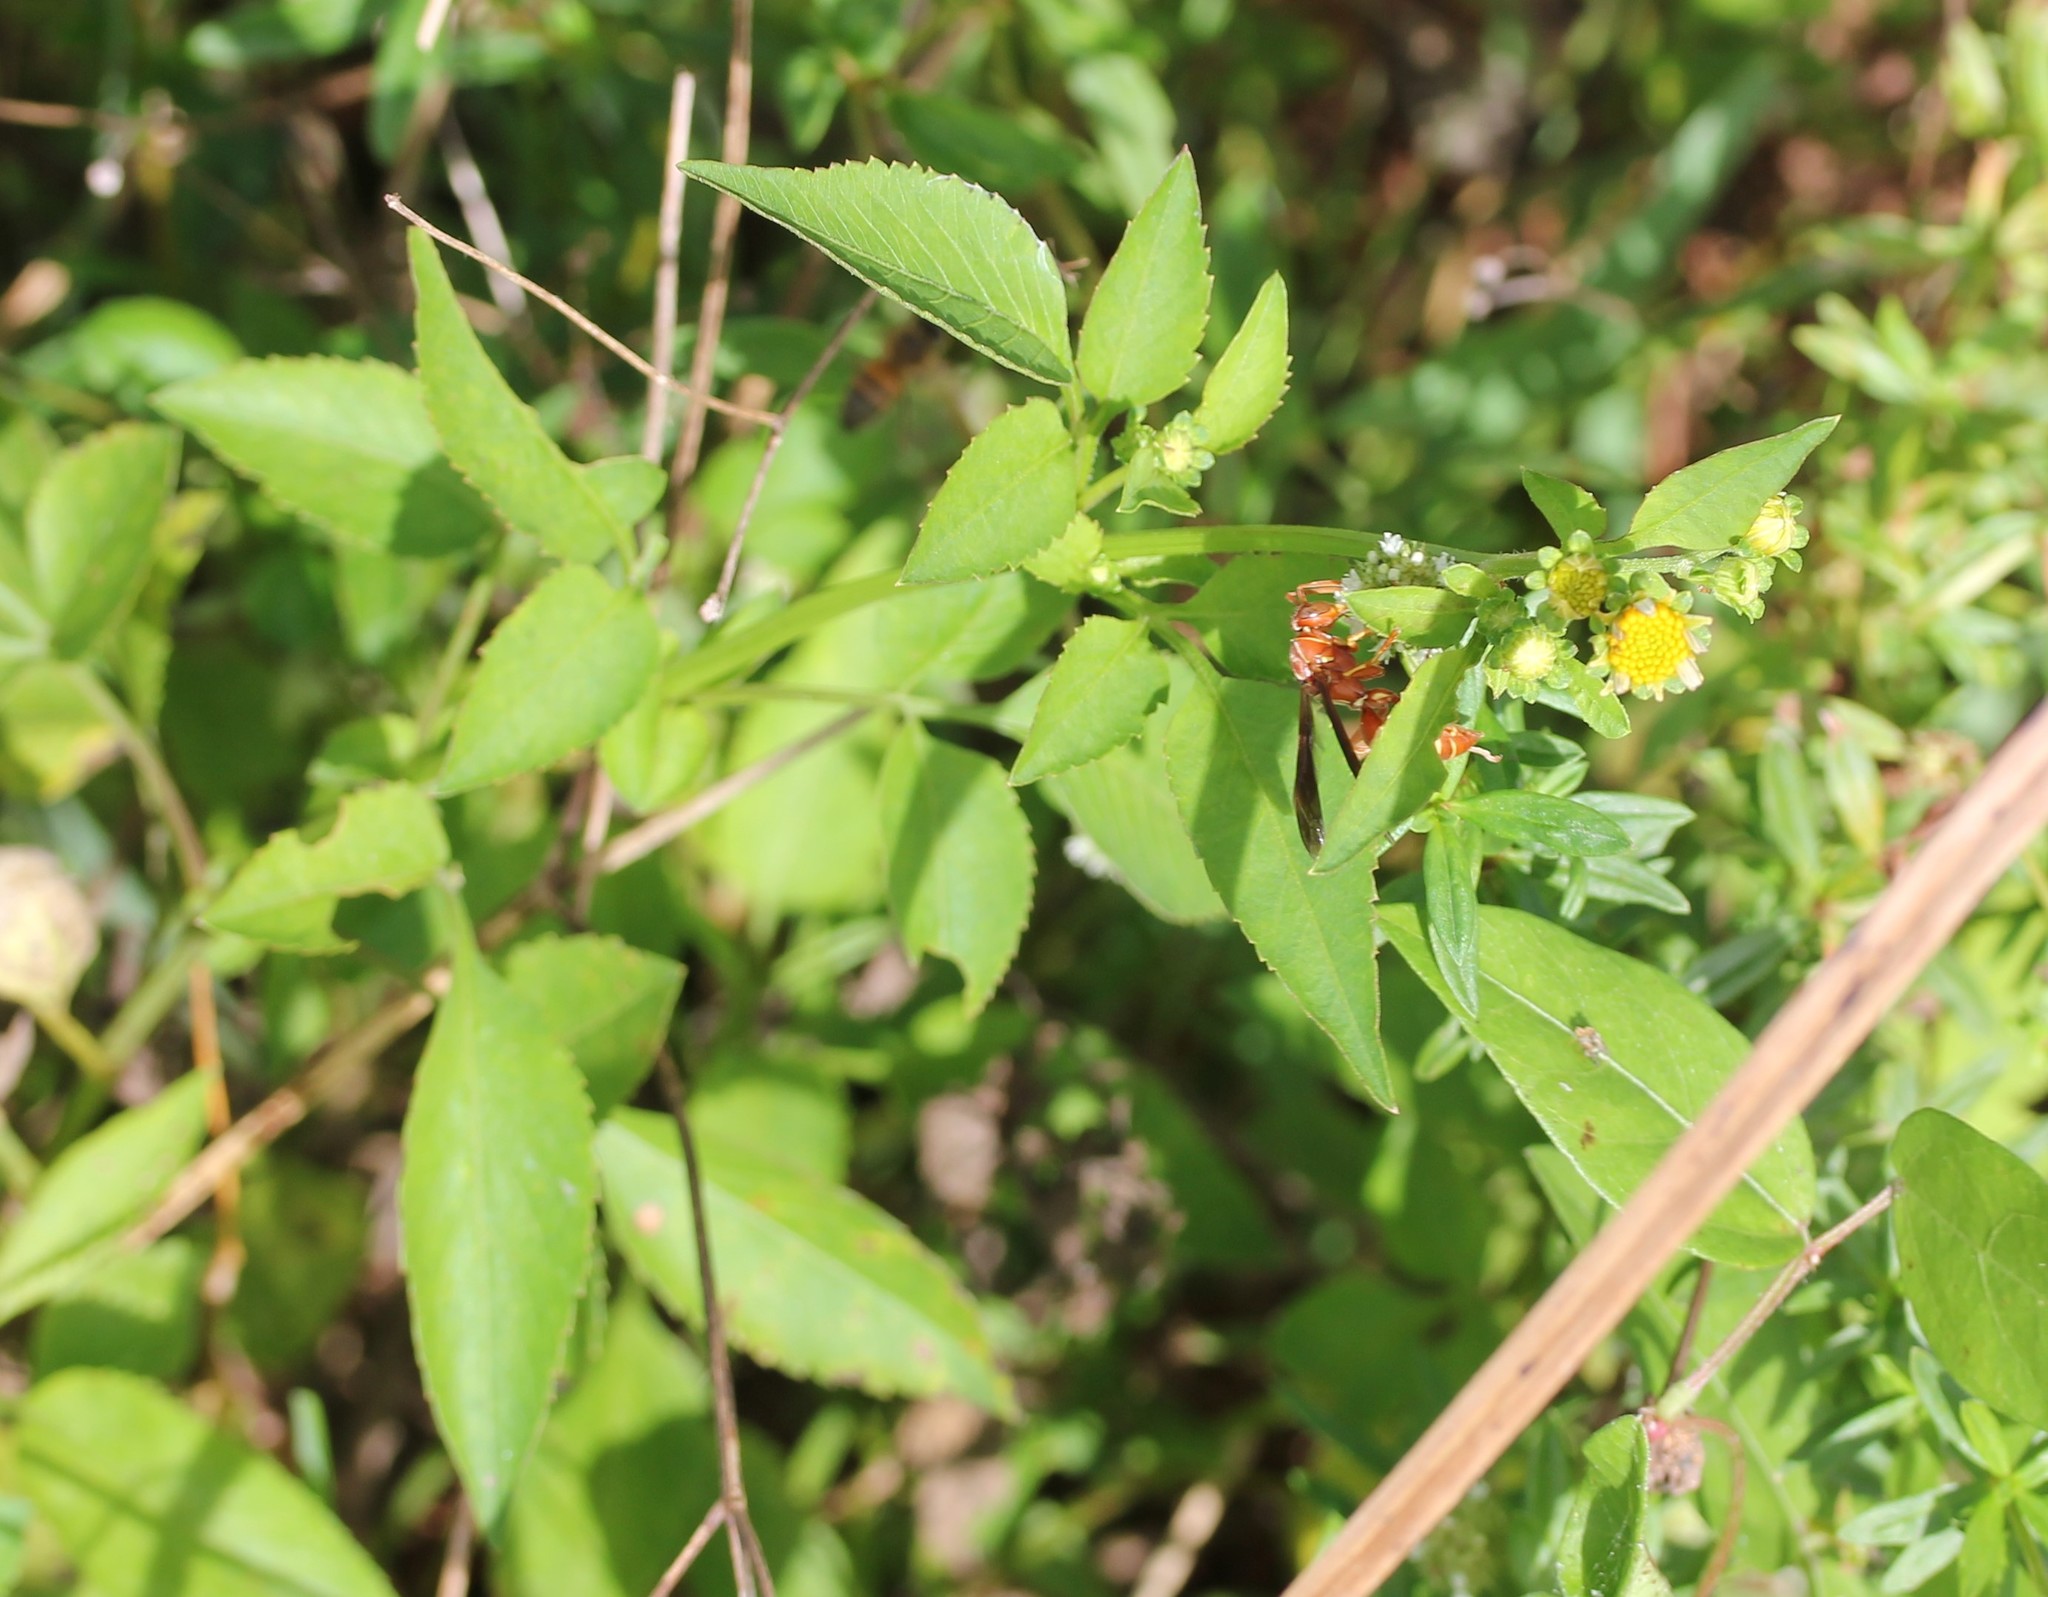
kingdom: Plantae
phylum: Tracheophyta
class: Magnoliopsida
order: Asterales
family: Asteraceae
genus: Bidens
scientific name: Bidens alba
